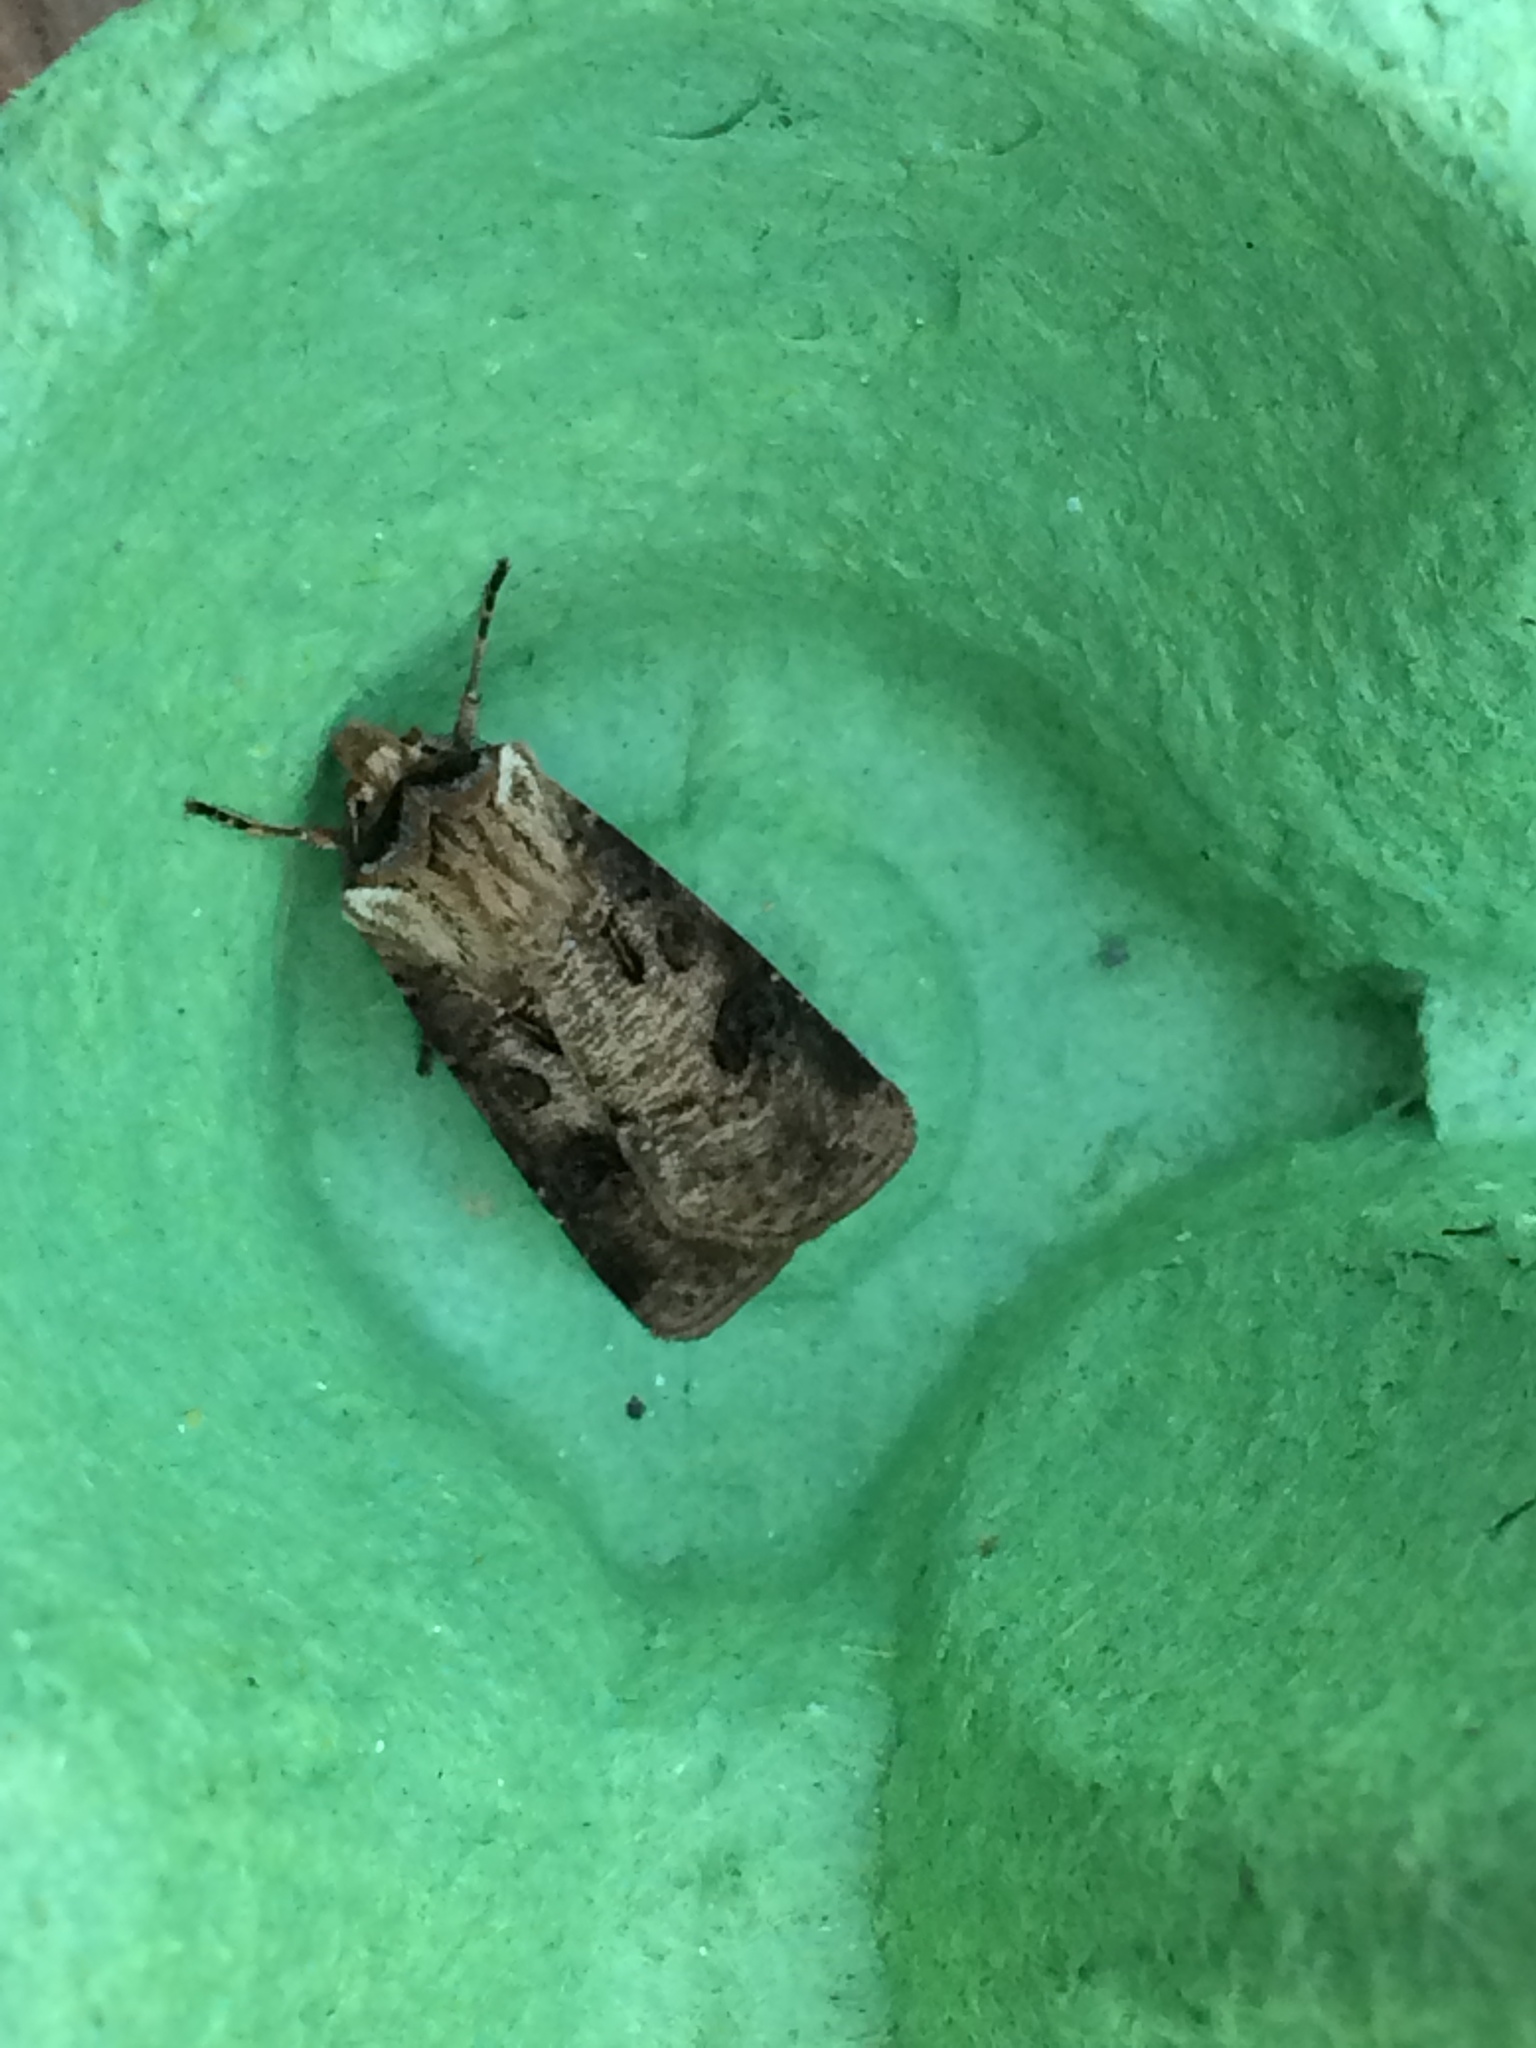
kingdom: Animalia
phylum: Arthropoda
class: Insecta
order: Lepidoptera
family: Noctuidae
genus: Agrotis
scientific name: Agrotis clavis
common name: Heart and club
